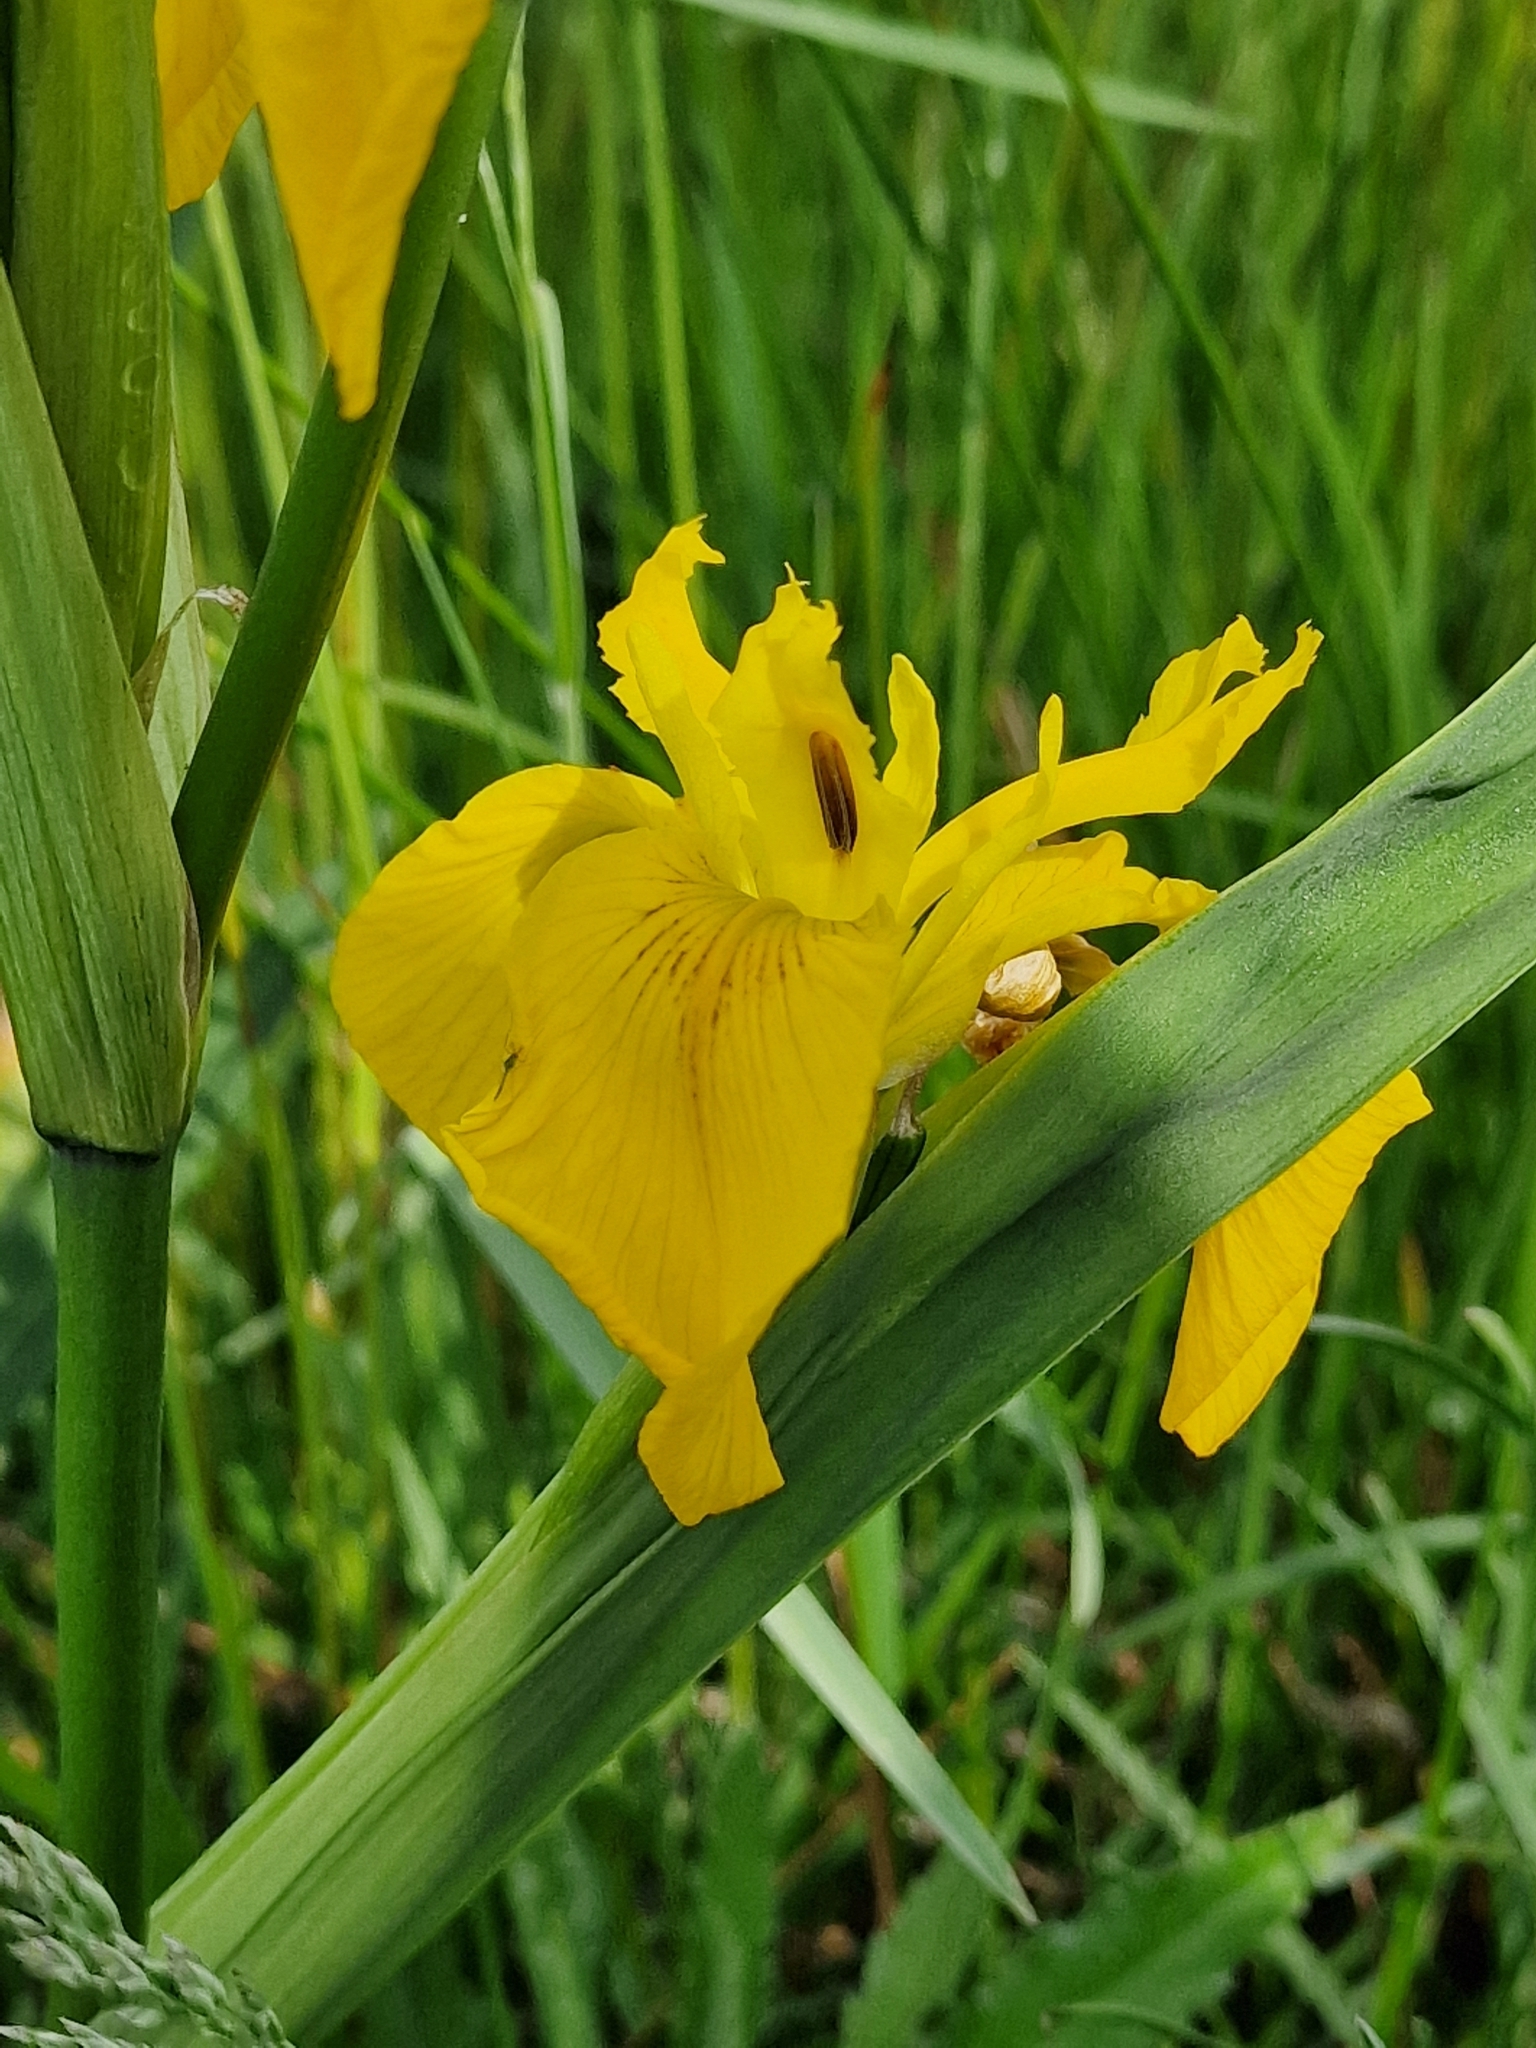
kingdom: Plantae
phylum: Tracheophyta
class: Liliopsida
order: Asparagales
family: Iridaceae
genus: Iris
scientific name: Iris pseudacorus
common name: Yellow flag
